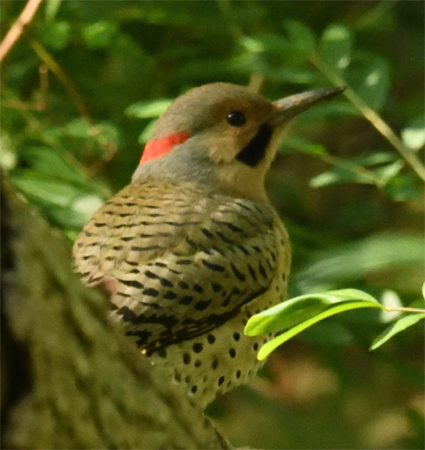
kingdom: Animalia
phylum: Chordata
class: Aves
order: Piciformes
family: Picidae
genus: Colaptes
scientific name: Colaptes auratus
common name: Northern flicker
